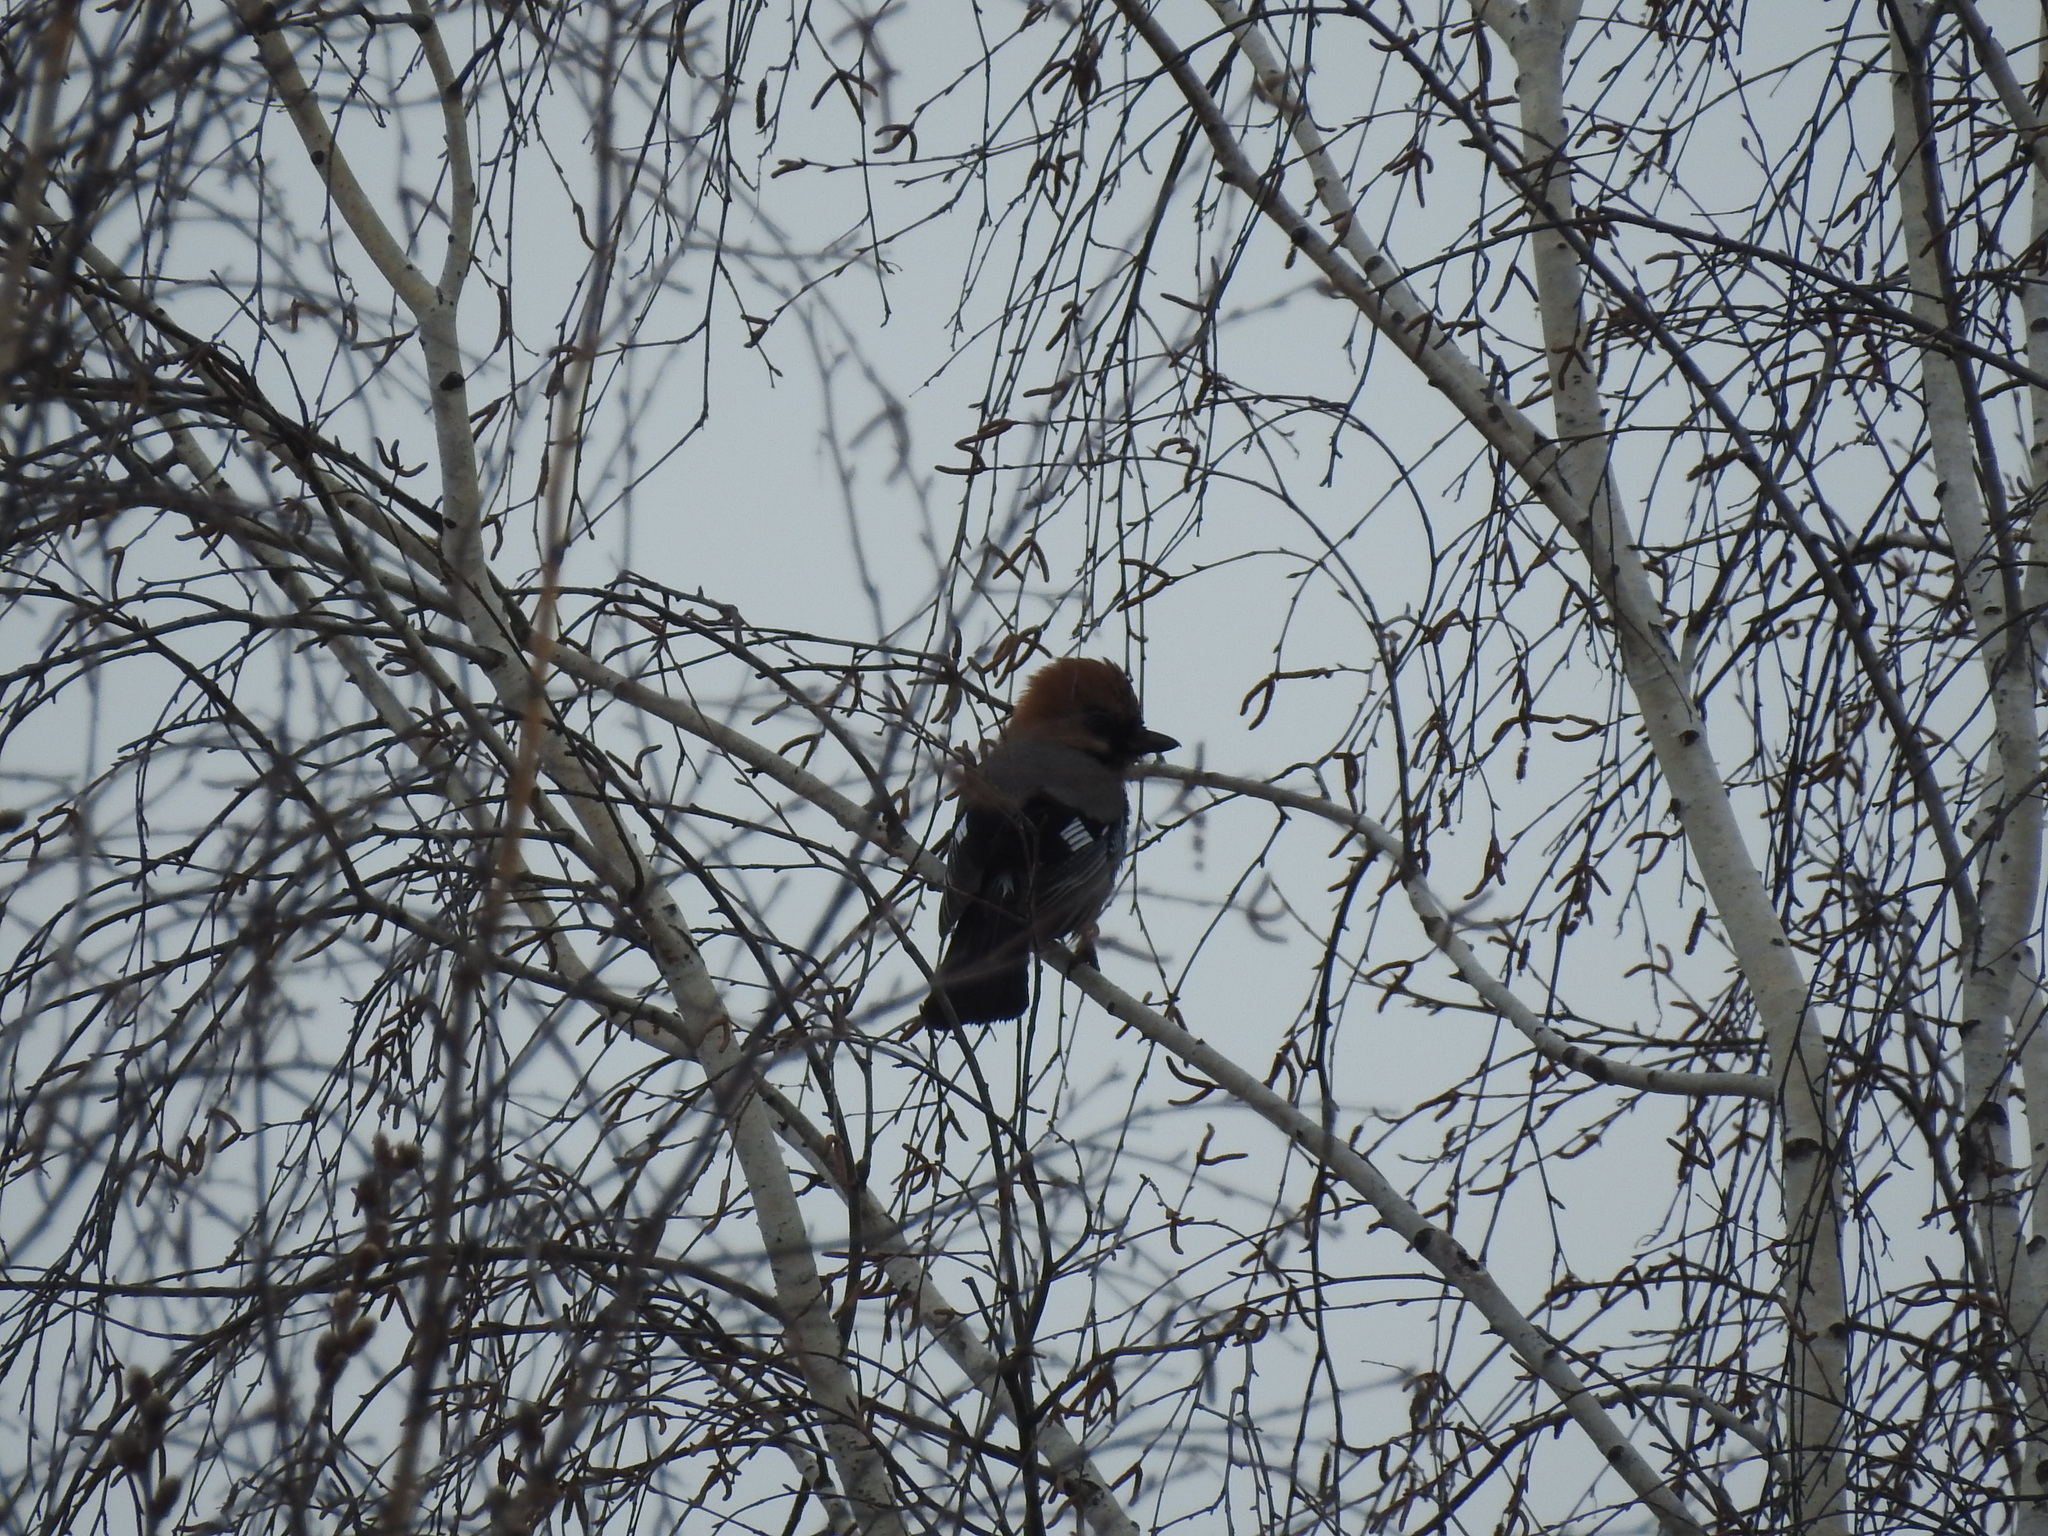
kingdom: Animalia
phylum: Chordata
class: Aves
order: Passeriformes
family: Corvidae
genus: Garrulus
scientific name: Garrulus glandarius
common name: Eurasian jay
